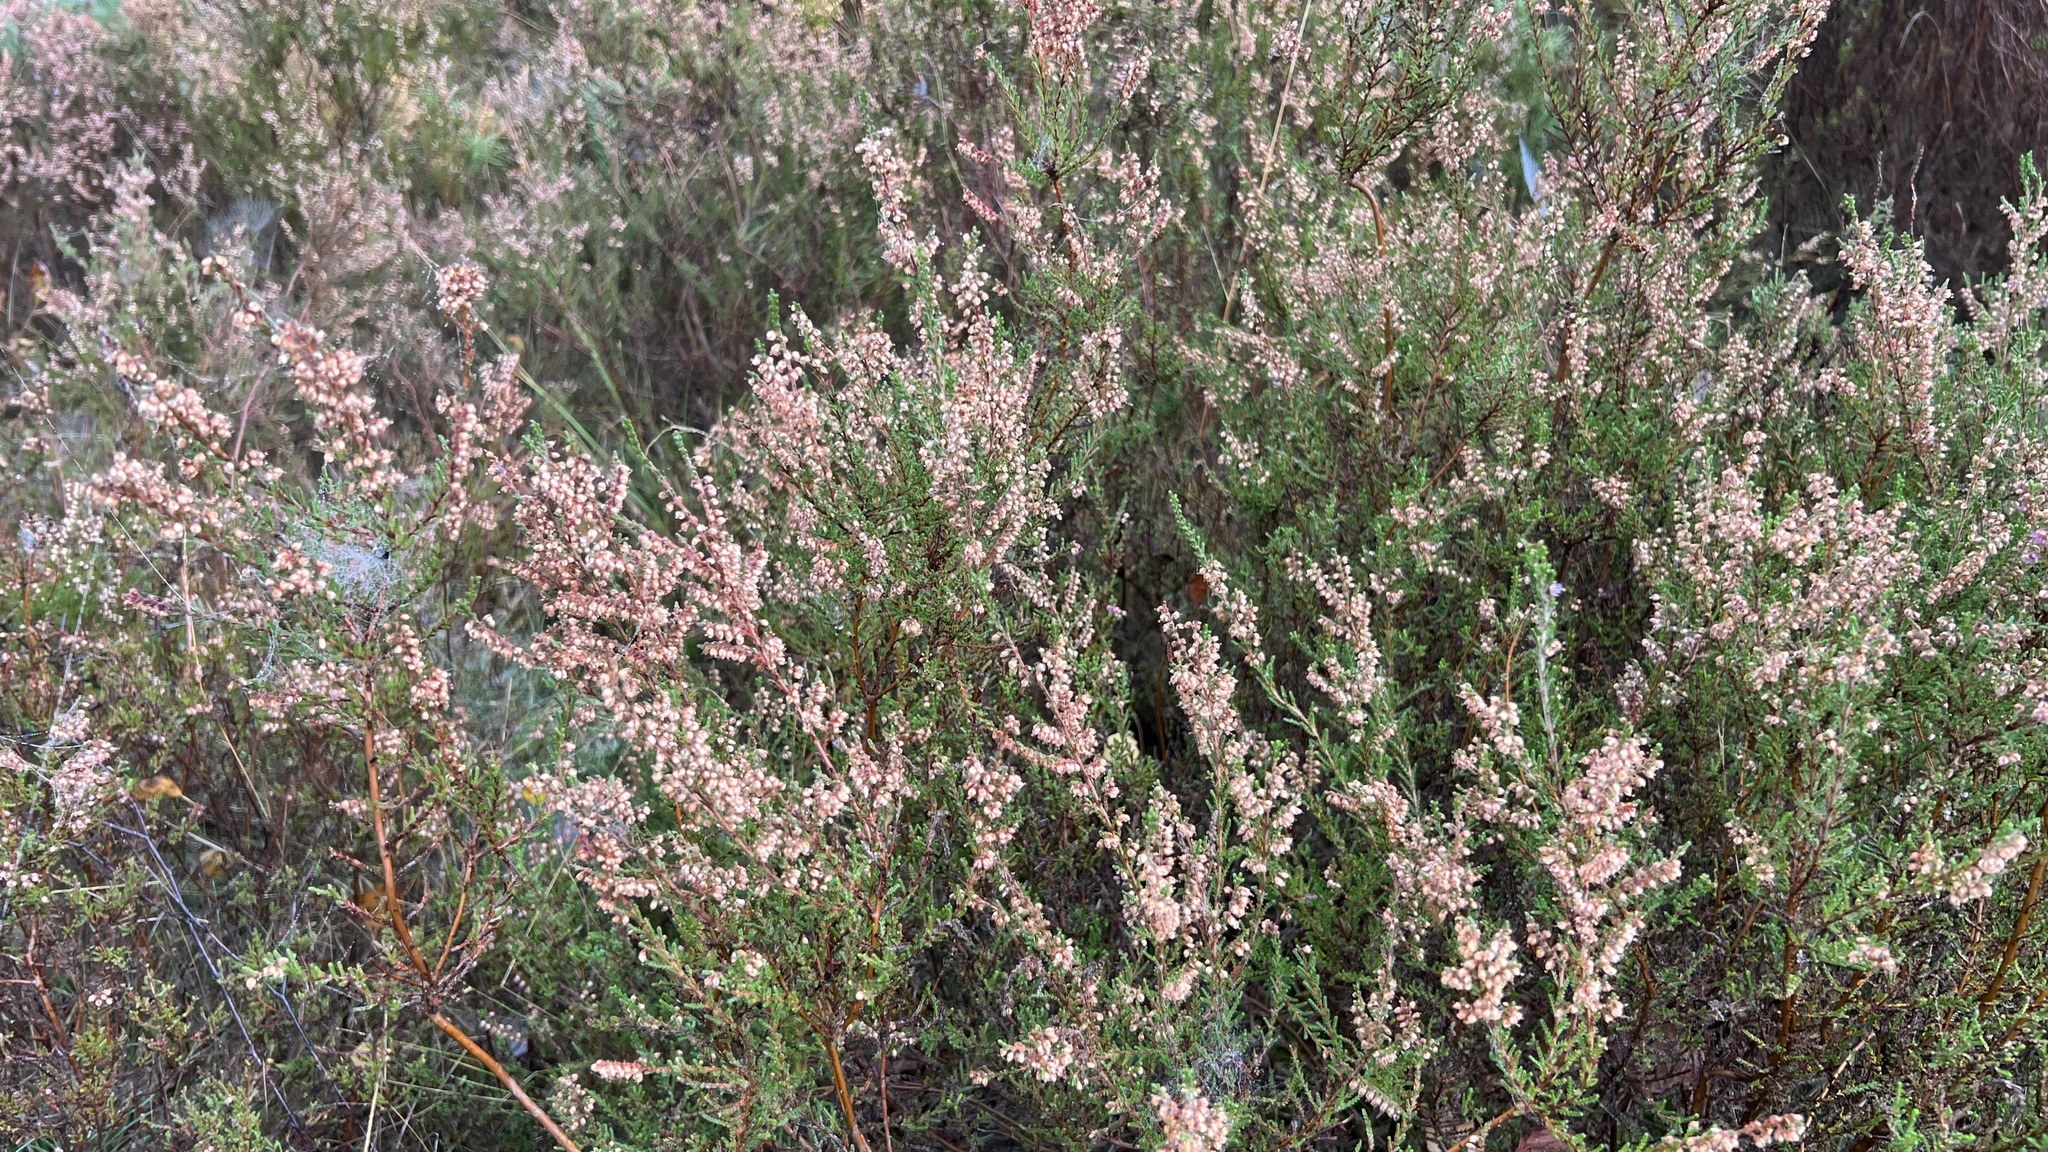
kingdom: Plantae
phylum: Tracheophyta
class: Magnoliopsida
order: Ericales
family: Ericaceae
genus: Calluna
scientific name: Calluna vulgaris
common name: Heather
